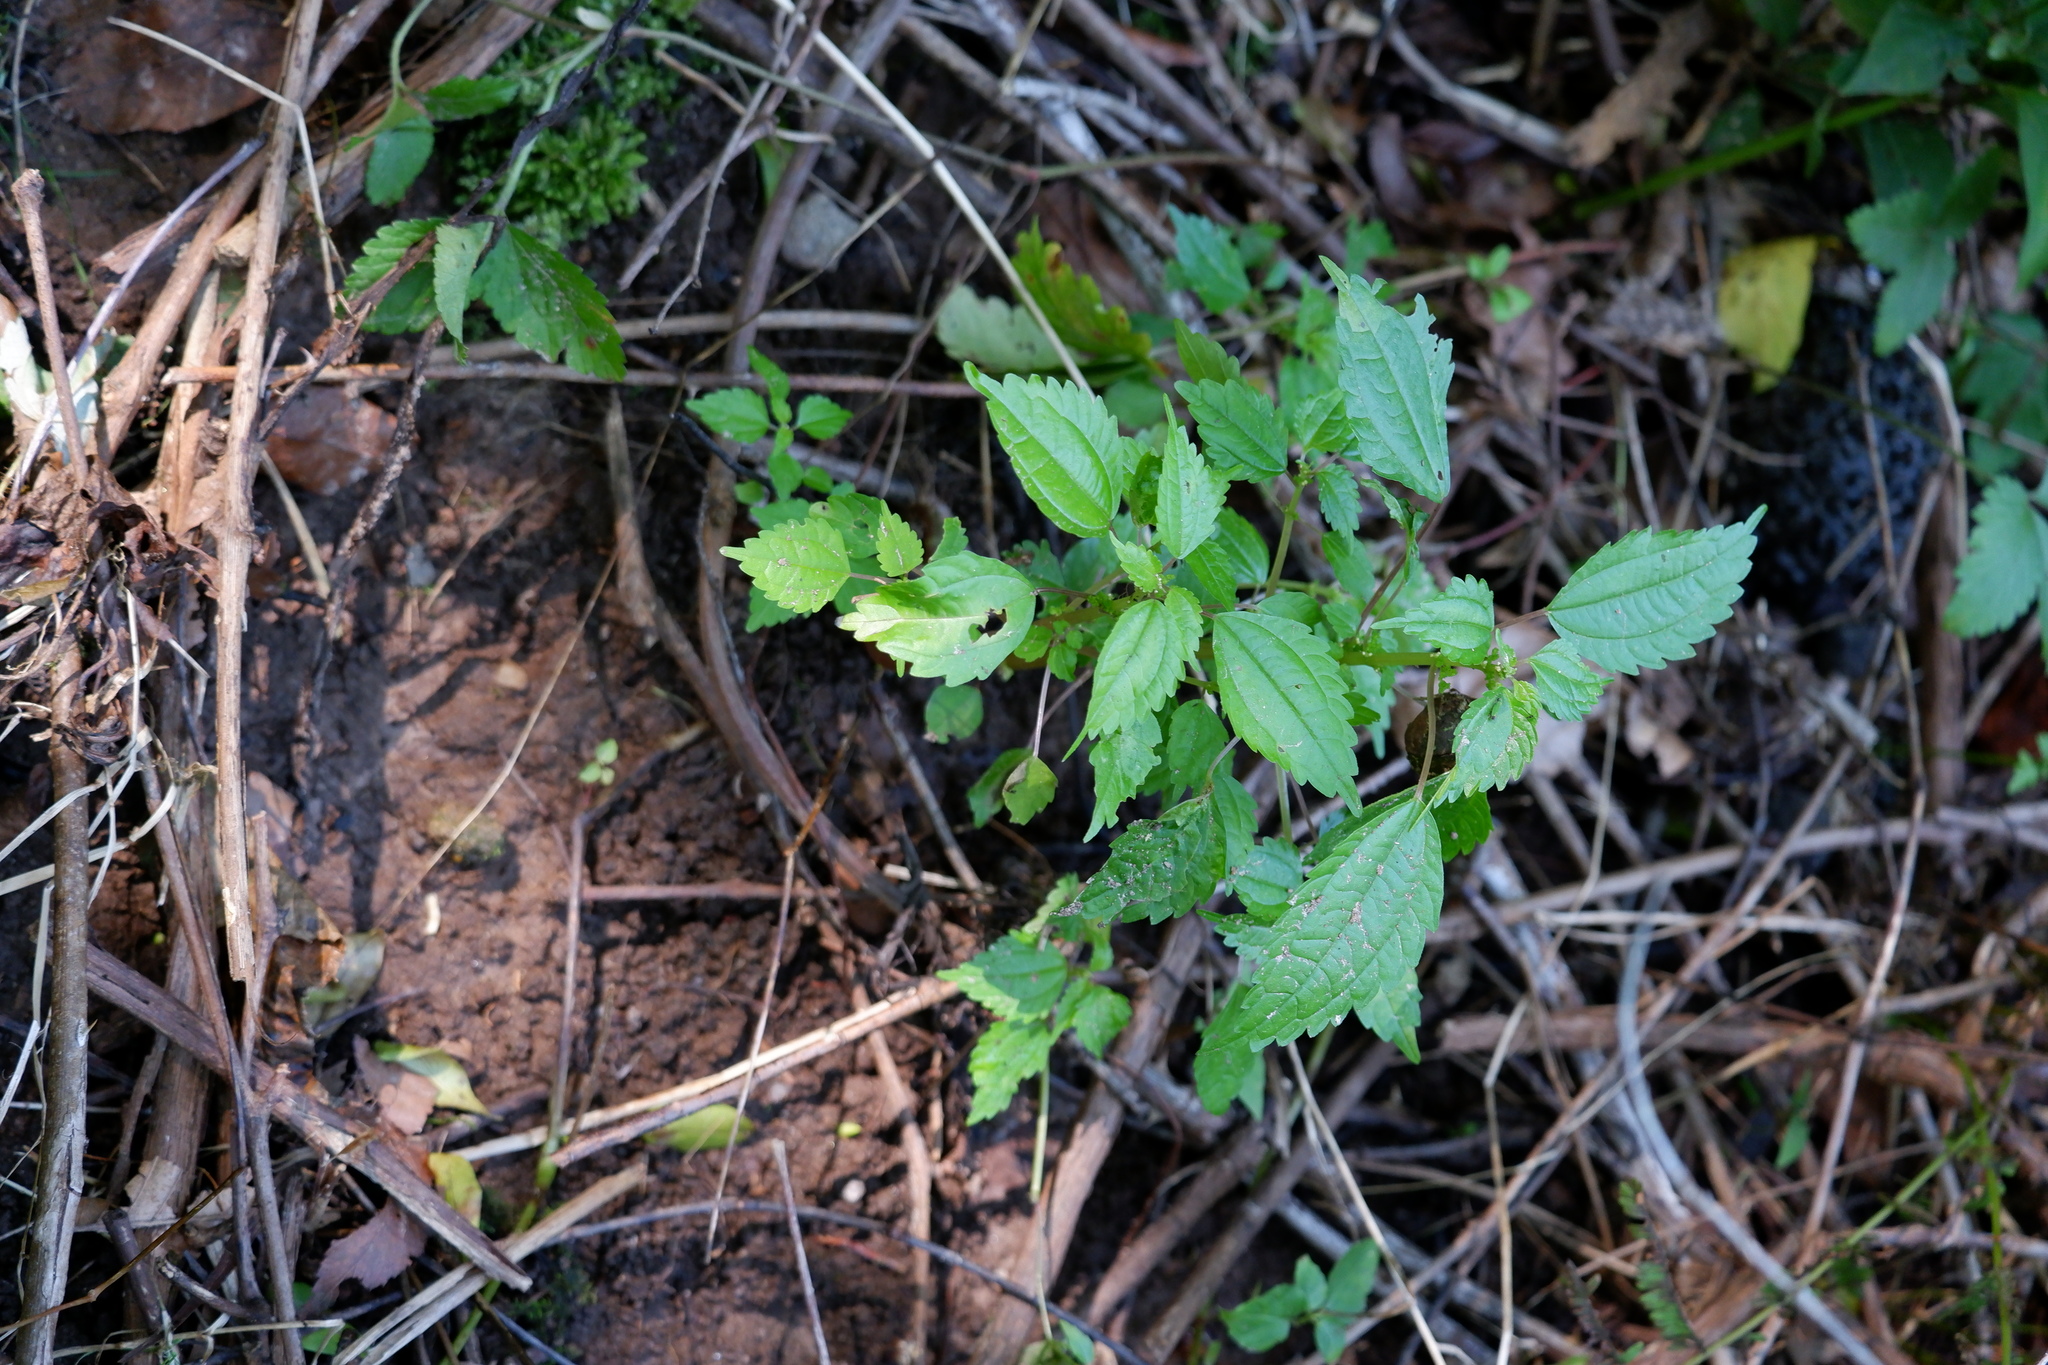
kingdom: Plantae
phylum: Tracheophyta
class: Magnoliopsida
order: Rosales
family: Urticaceae
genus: Pilea
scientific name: Pilea pumila
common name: Clearweed
